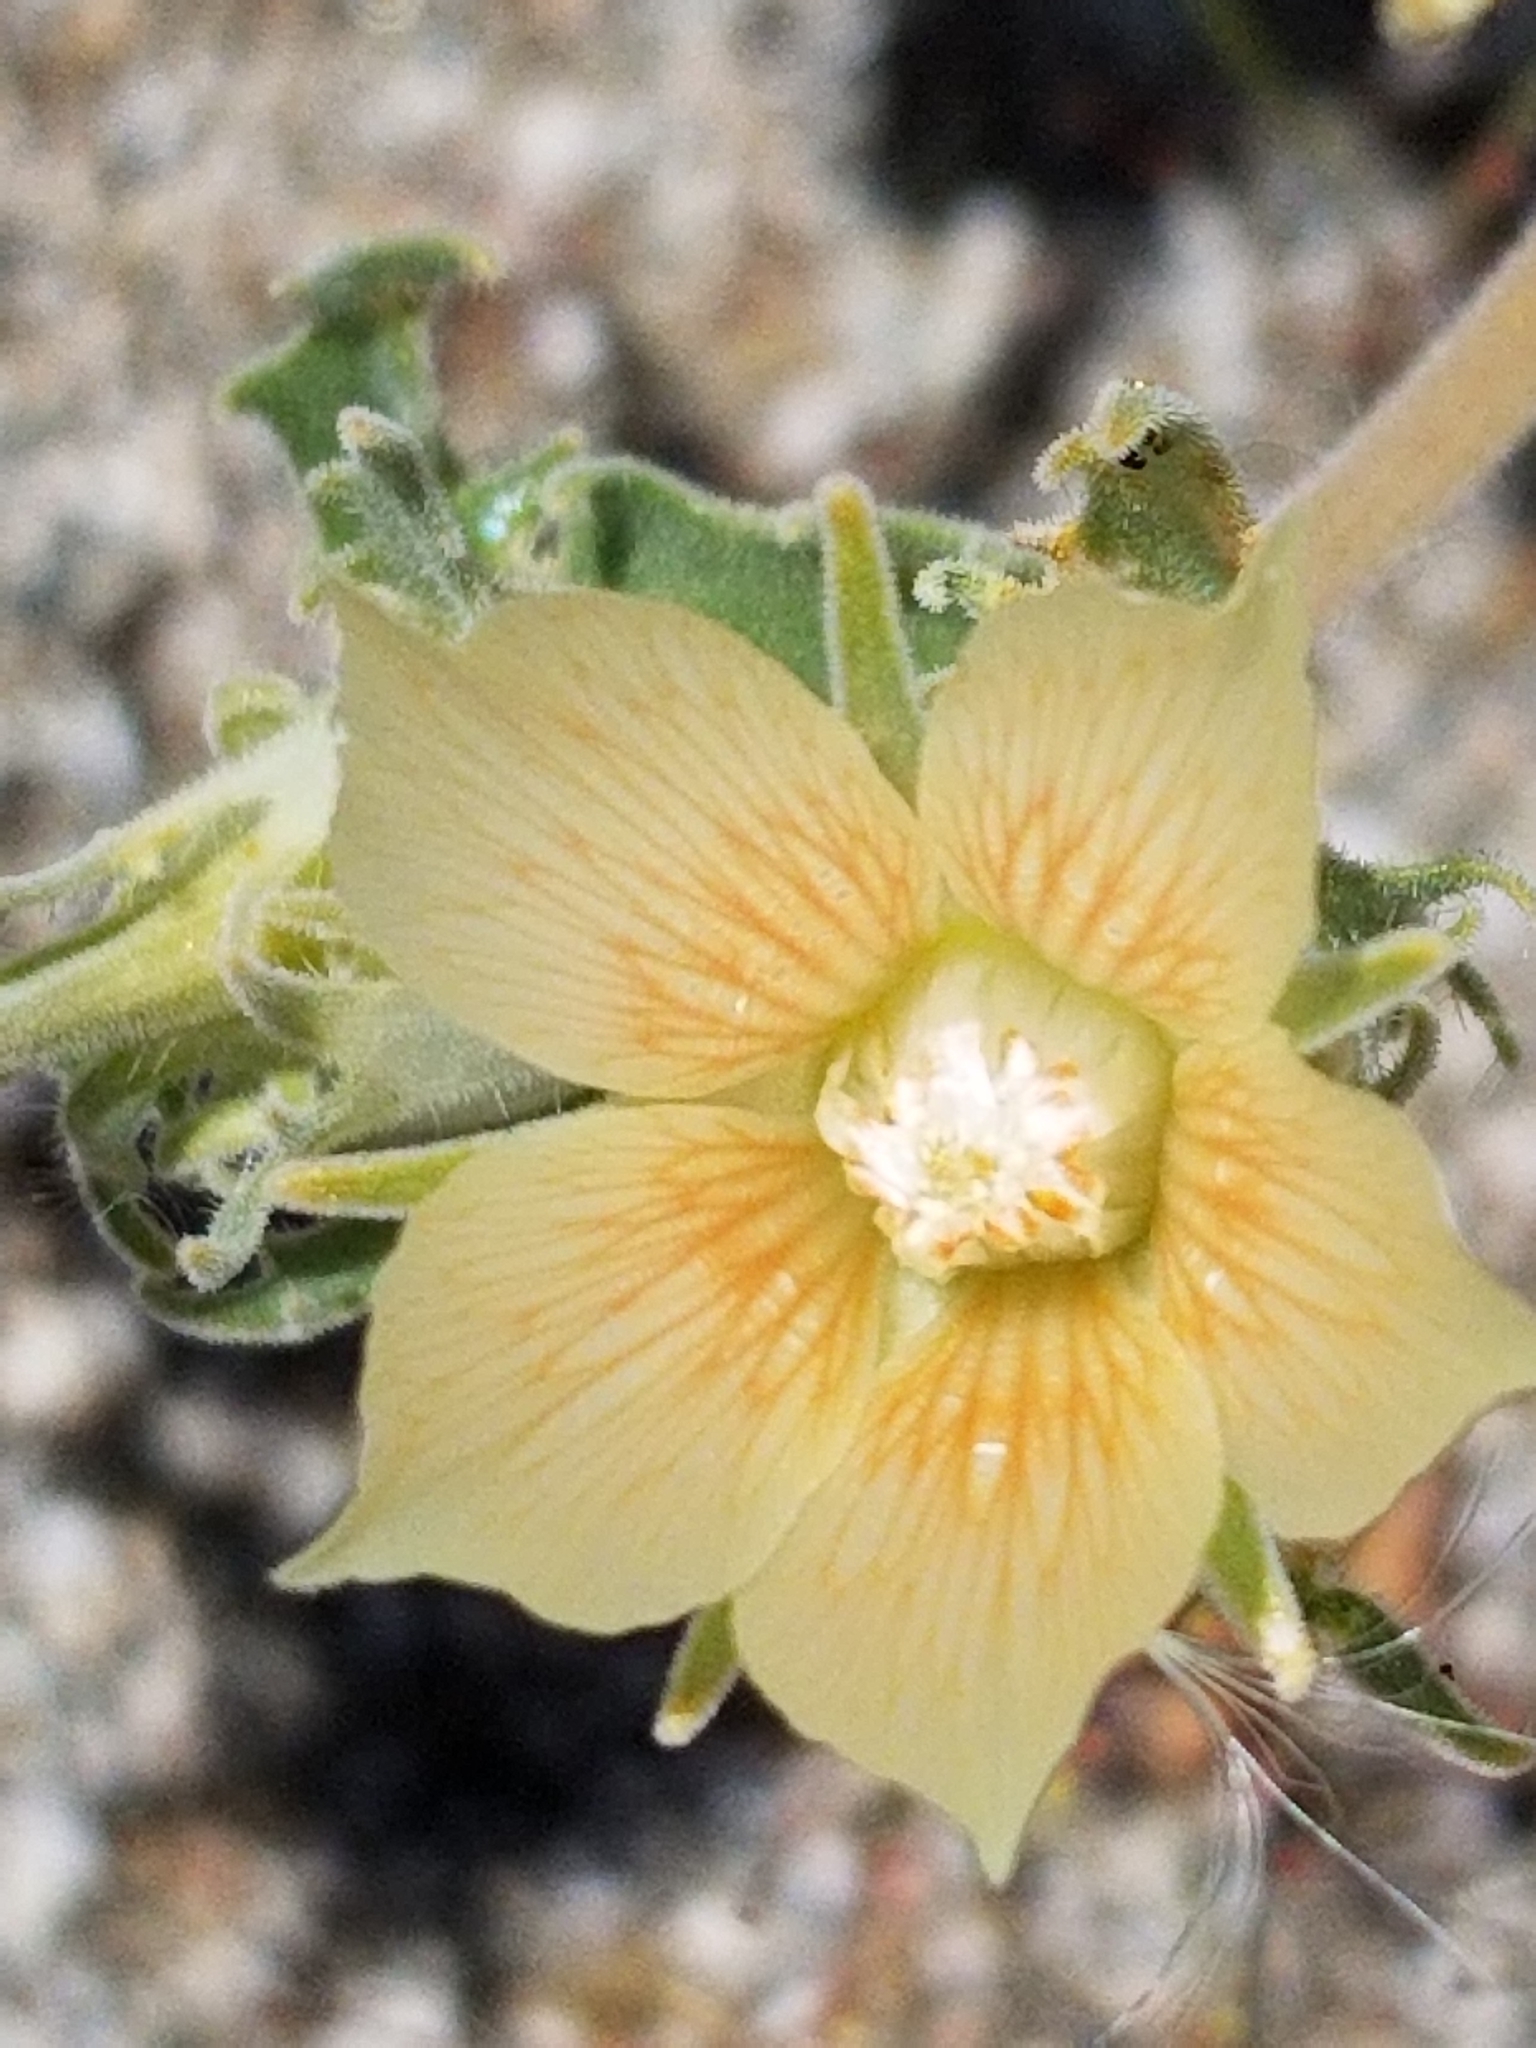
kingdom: Plantae
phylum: Tracheophyta
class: Magnoliopsida
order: Cornales
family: Loasaceae
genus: Mentzelia
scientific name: Mentzelia involucrata
